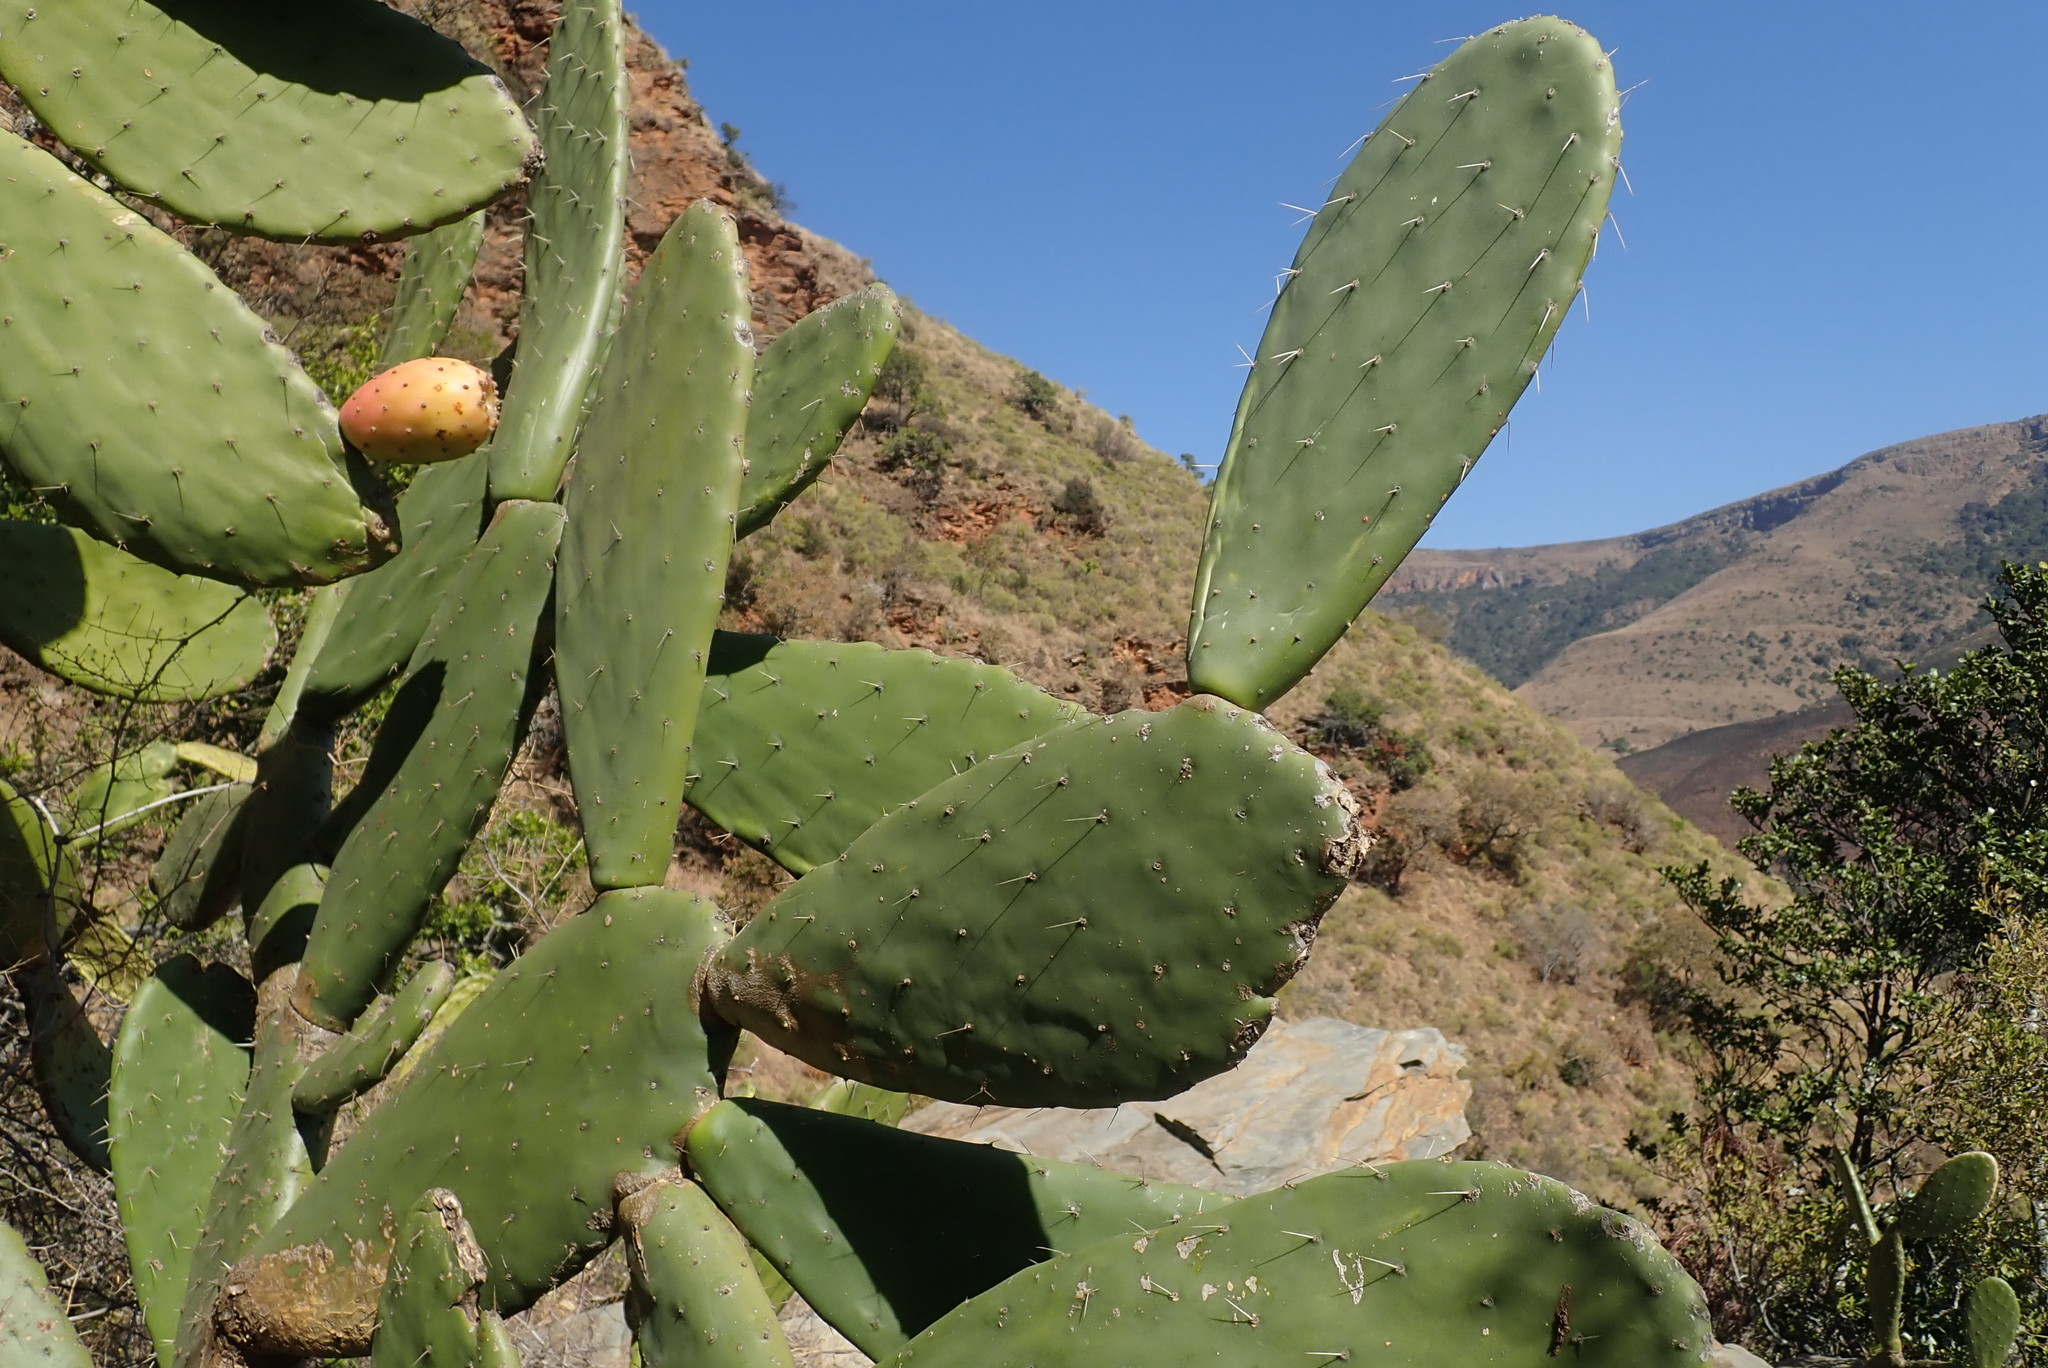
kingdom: Plantae
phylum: Tracheophyta
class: Magnoliopsida
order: Caryophyllales
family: Cactaceae
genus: Opuntia
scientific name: Opuntia ficus-indica
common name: Barbary fig
